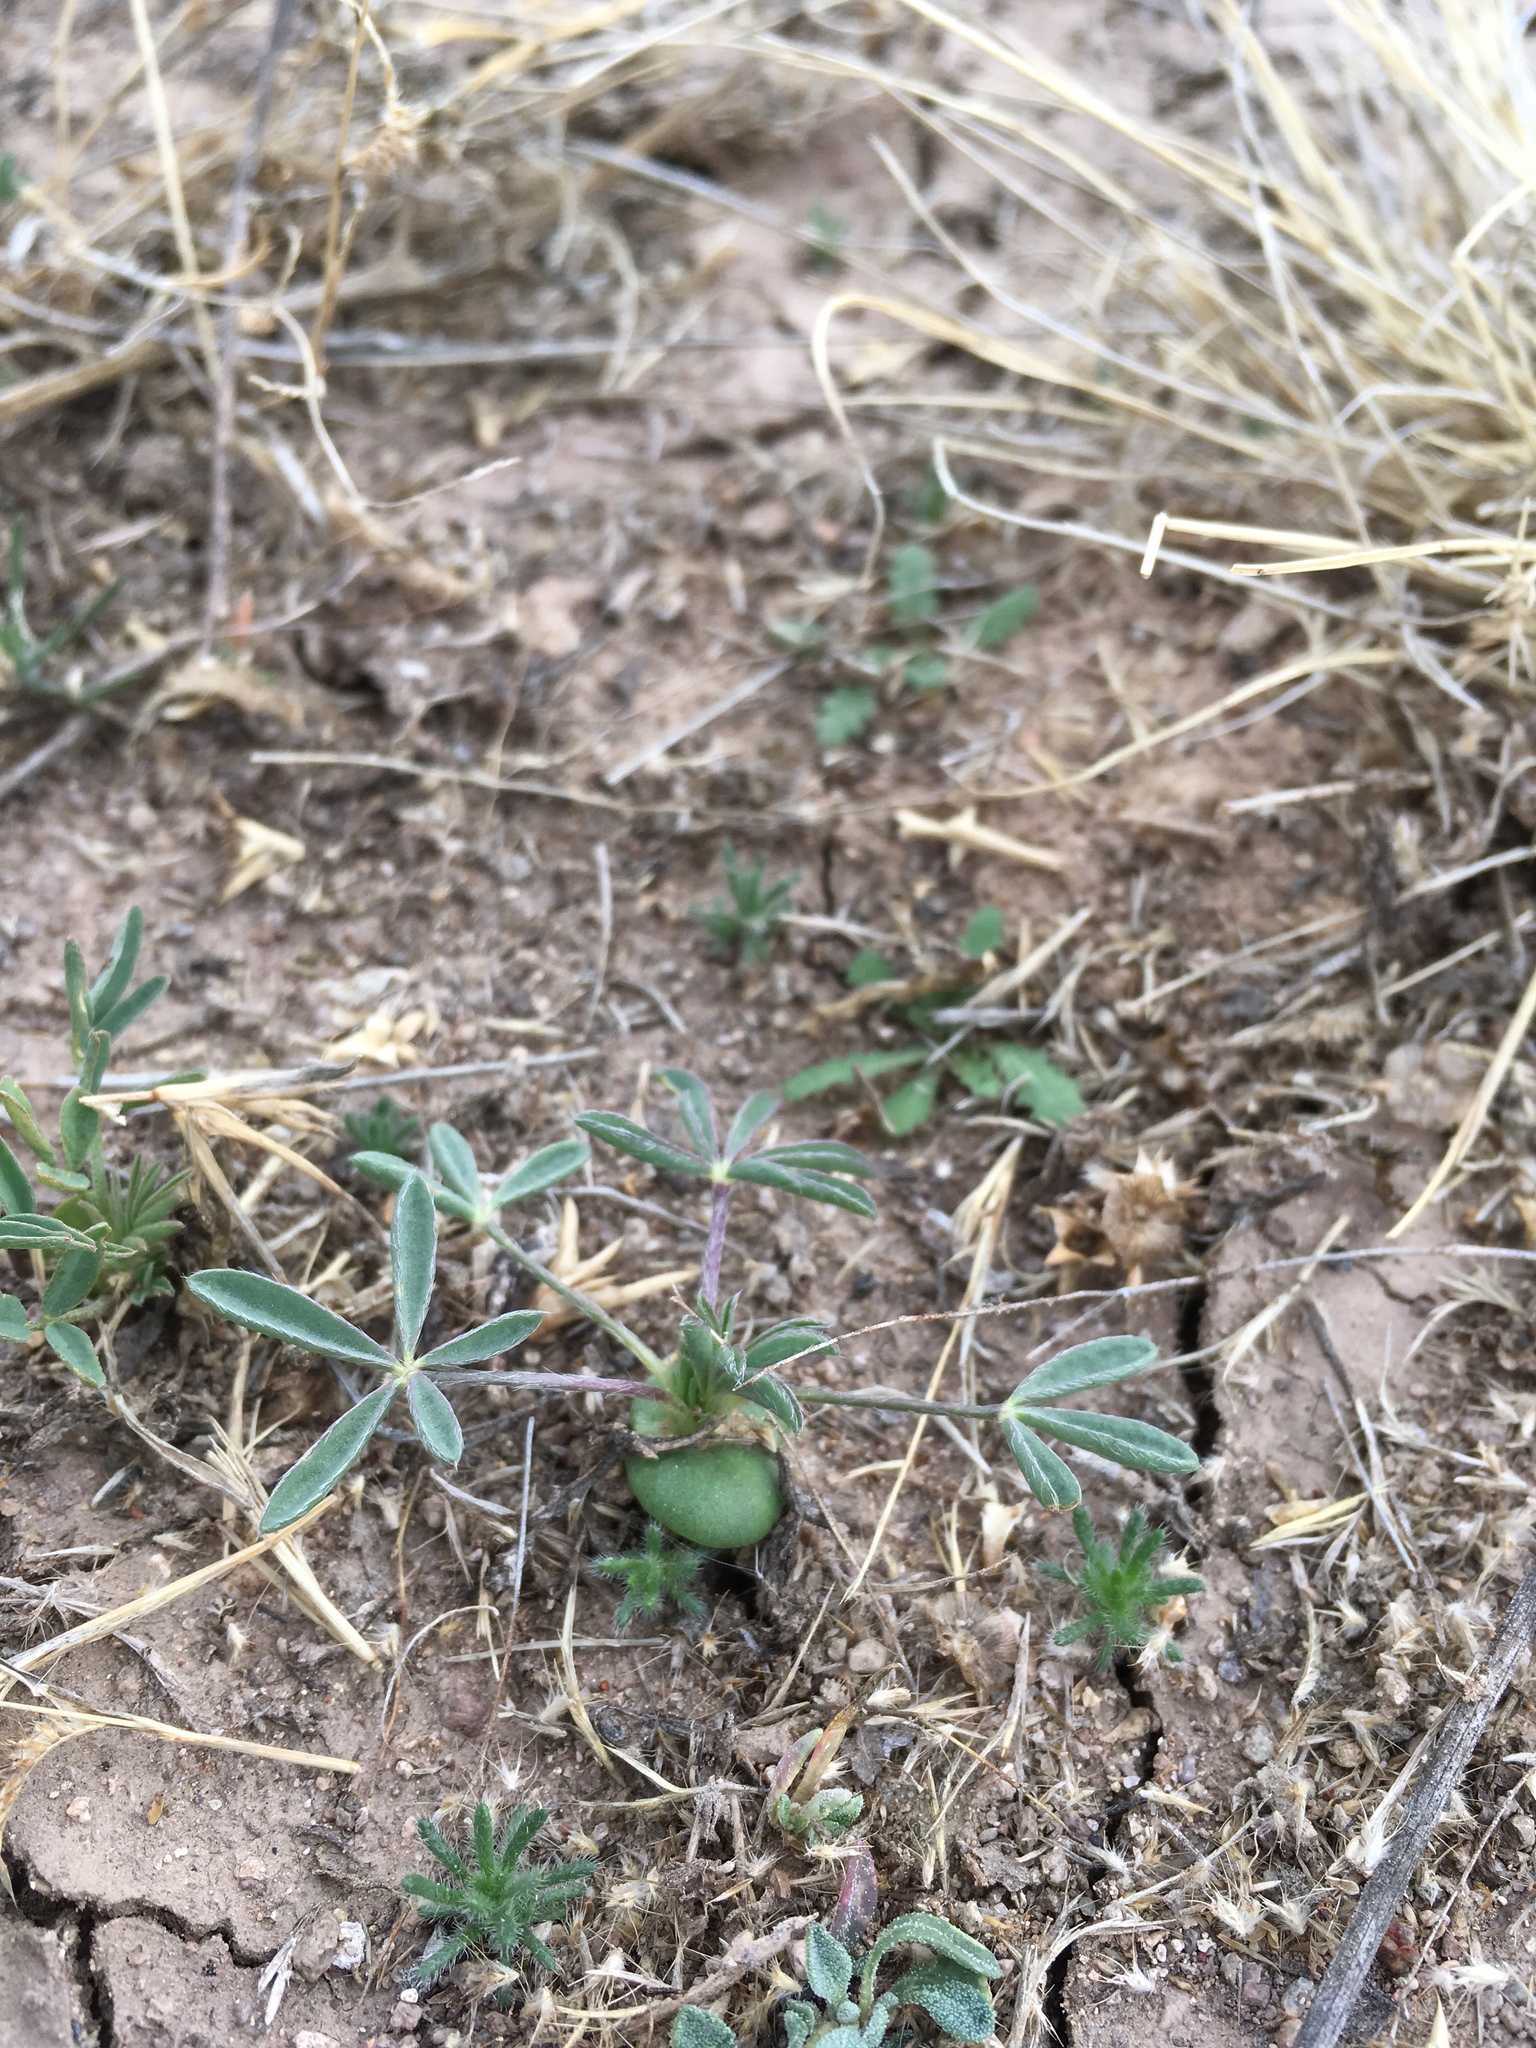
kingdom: Plantae
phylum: Tracheophyta
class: Magnoliopsida
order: Fabales
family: Fabaceae
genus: Lupinus
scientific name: Lupinus kingii
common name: King's lupine
